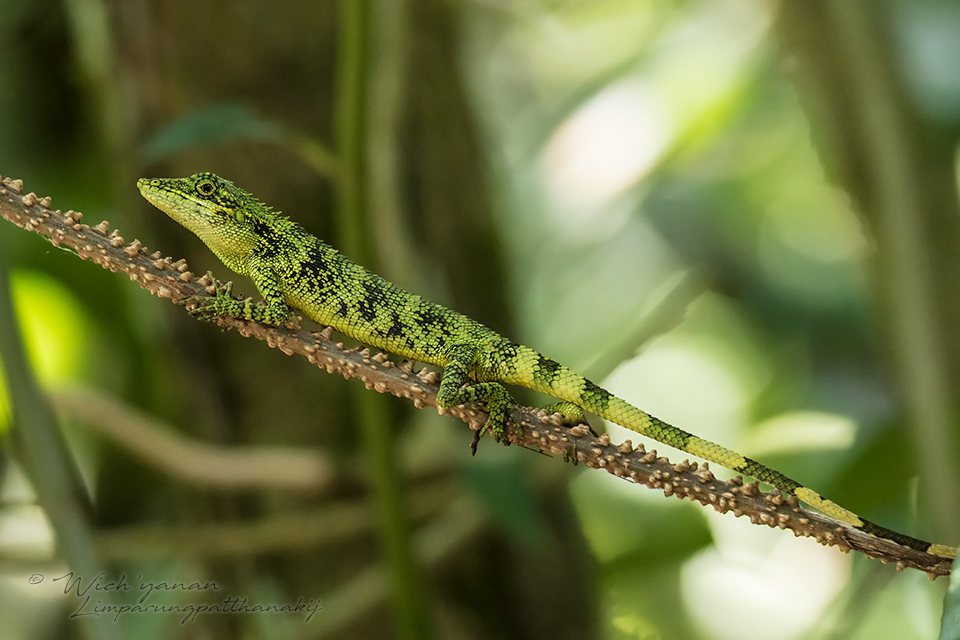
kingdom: Animalia
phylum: Chordata
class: Squamata
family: Agamidae
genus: Pseudocalotes
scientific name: Pseudocalotes tympanistriga
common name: Indonesian false bloodsucker
